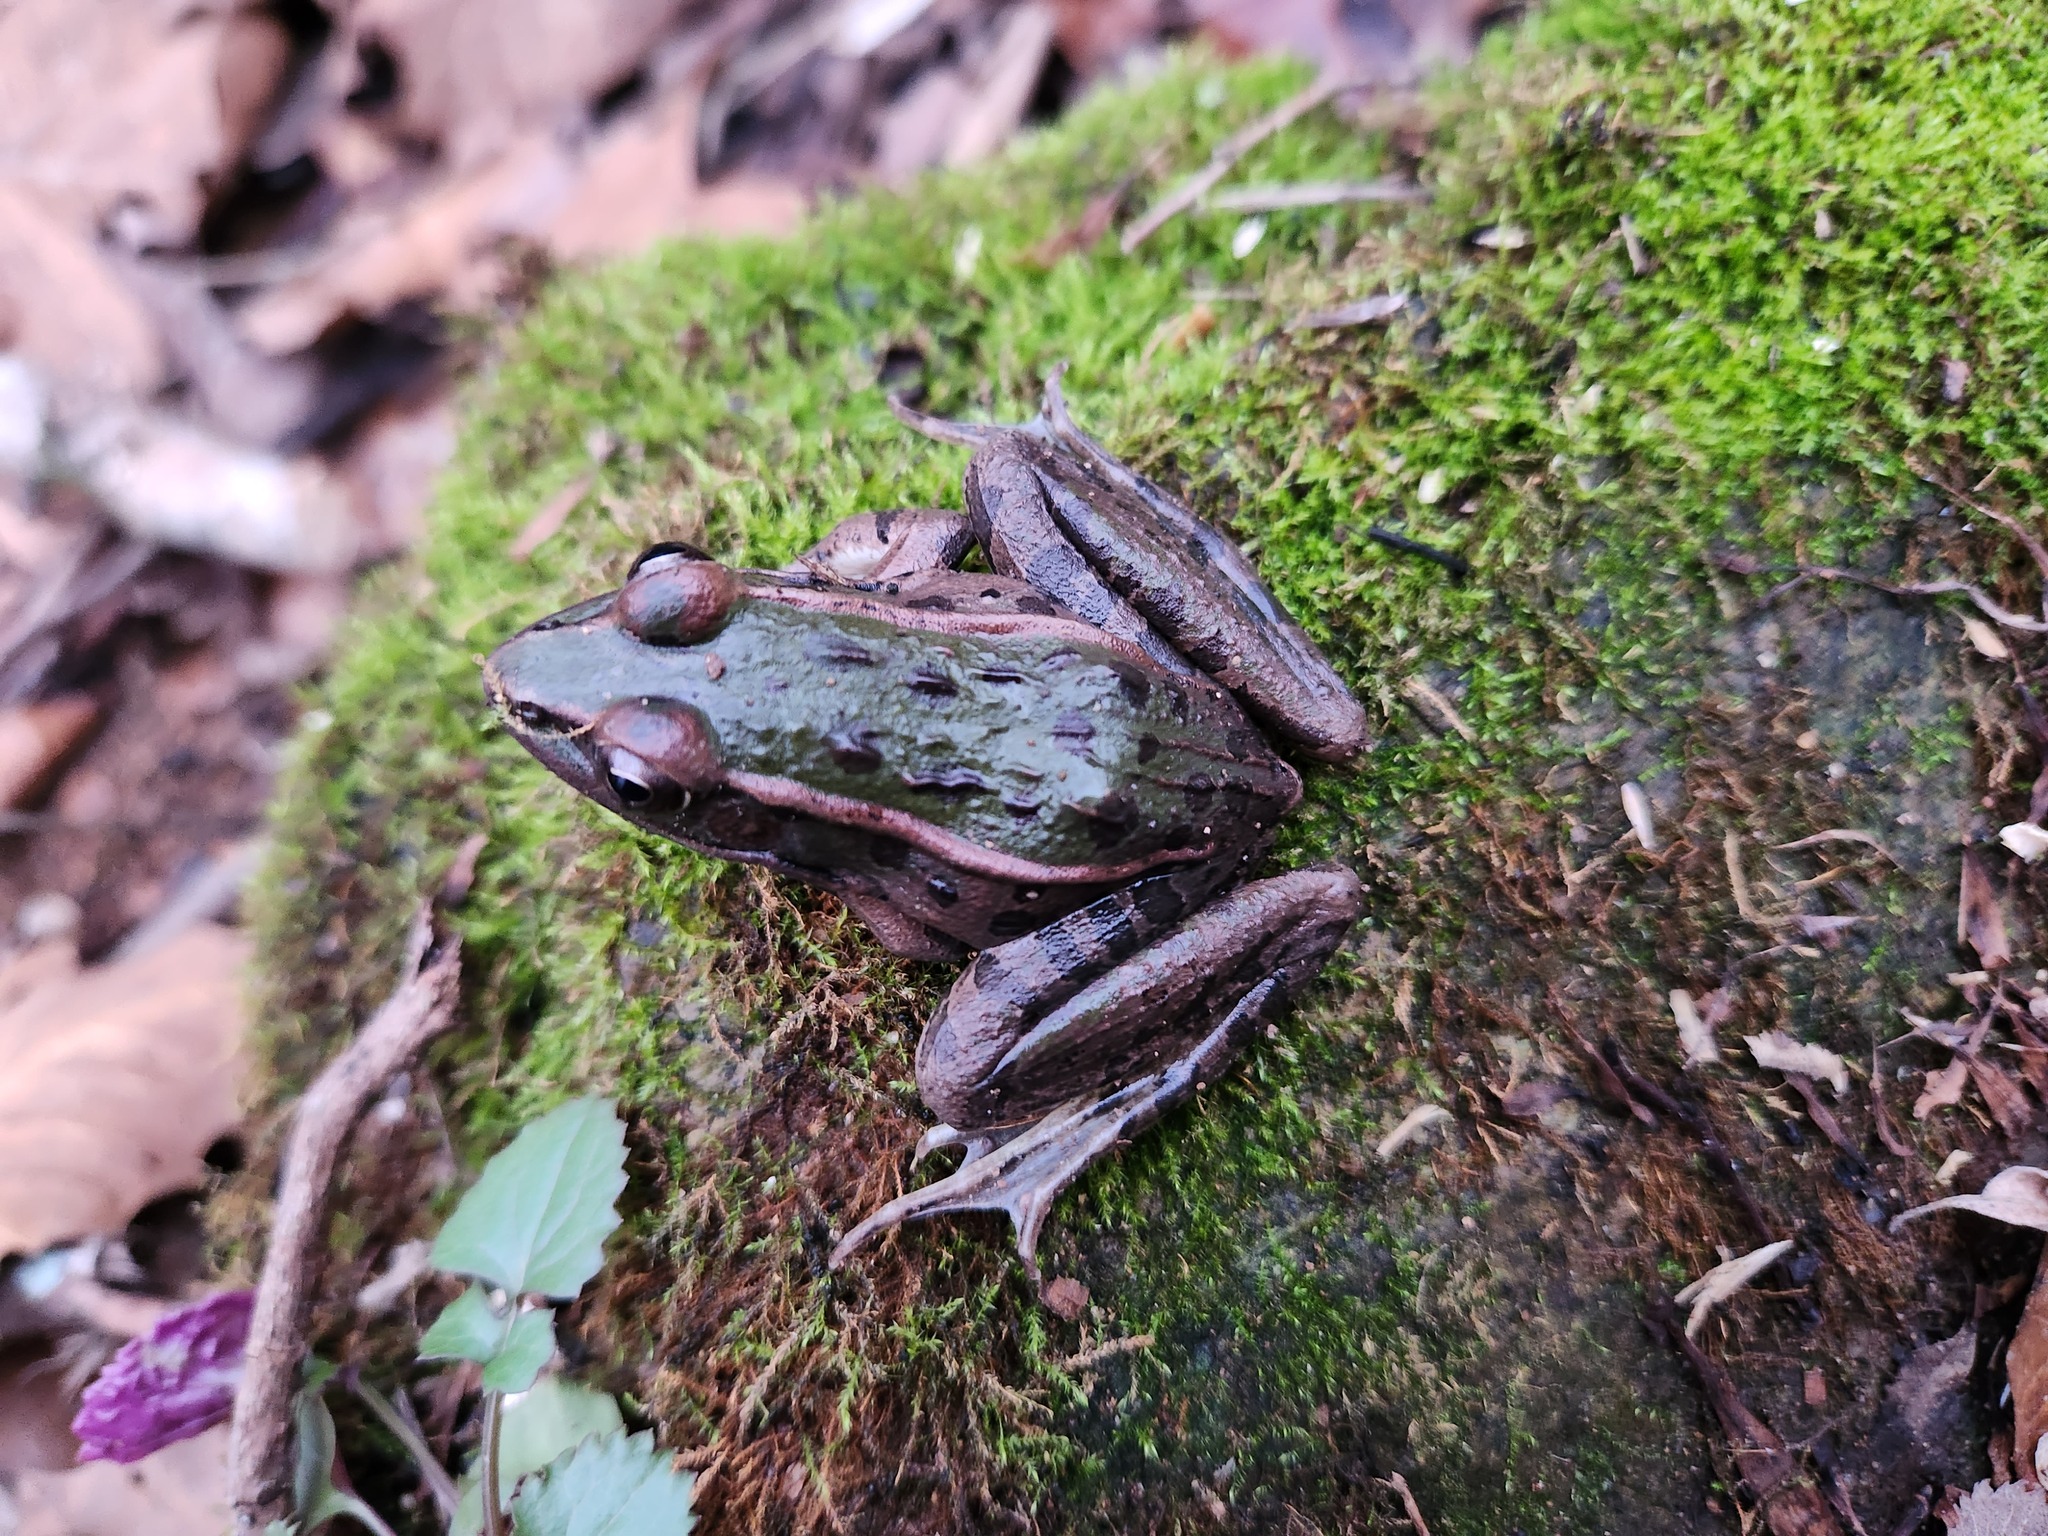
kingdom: Animalia
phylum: Chordata
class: Amphibia
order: Anura
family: Ranidae
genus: Lithobates
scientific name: Lithobates sphenocephalus
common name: Southern leopard frog
